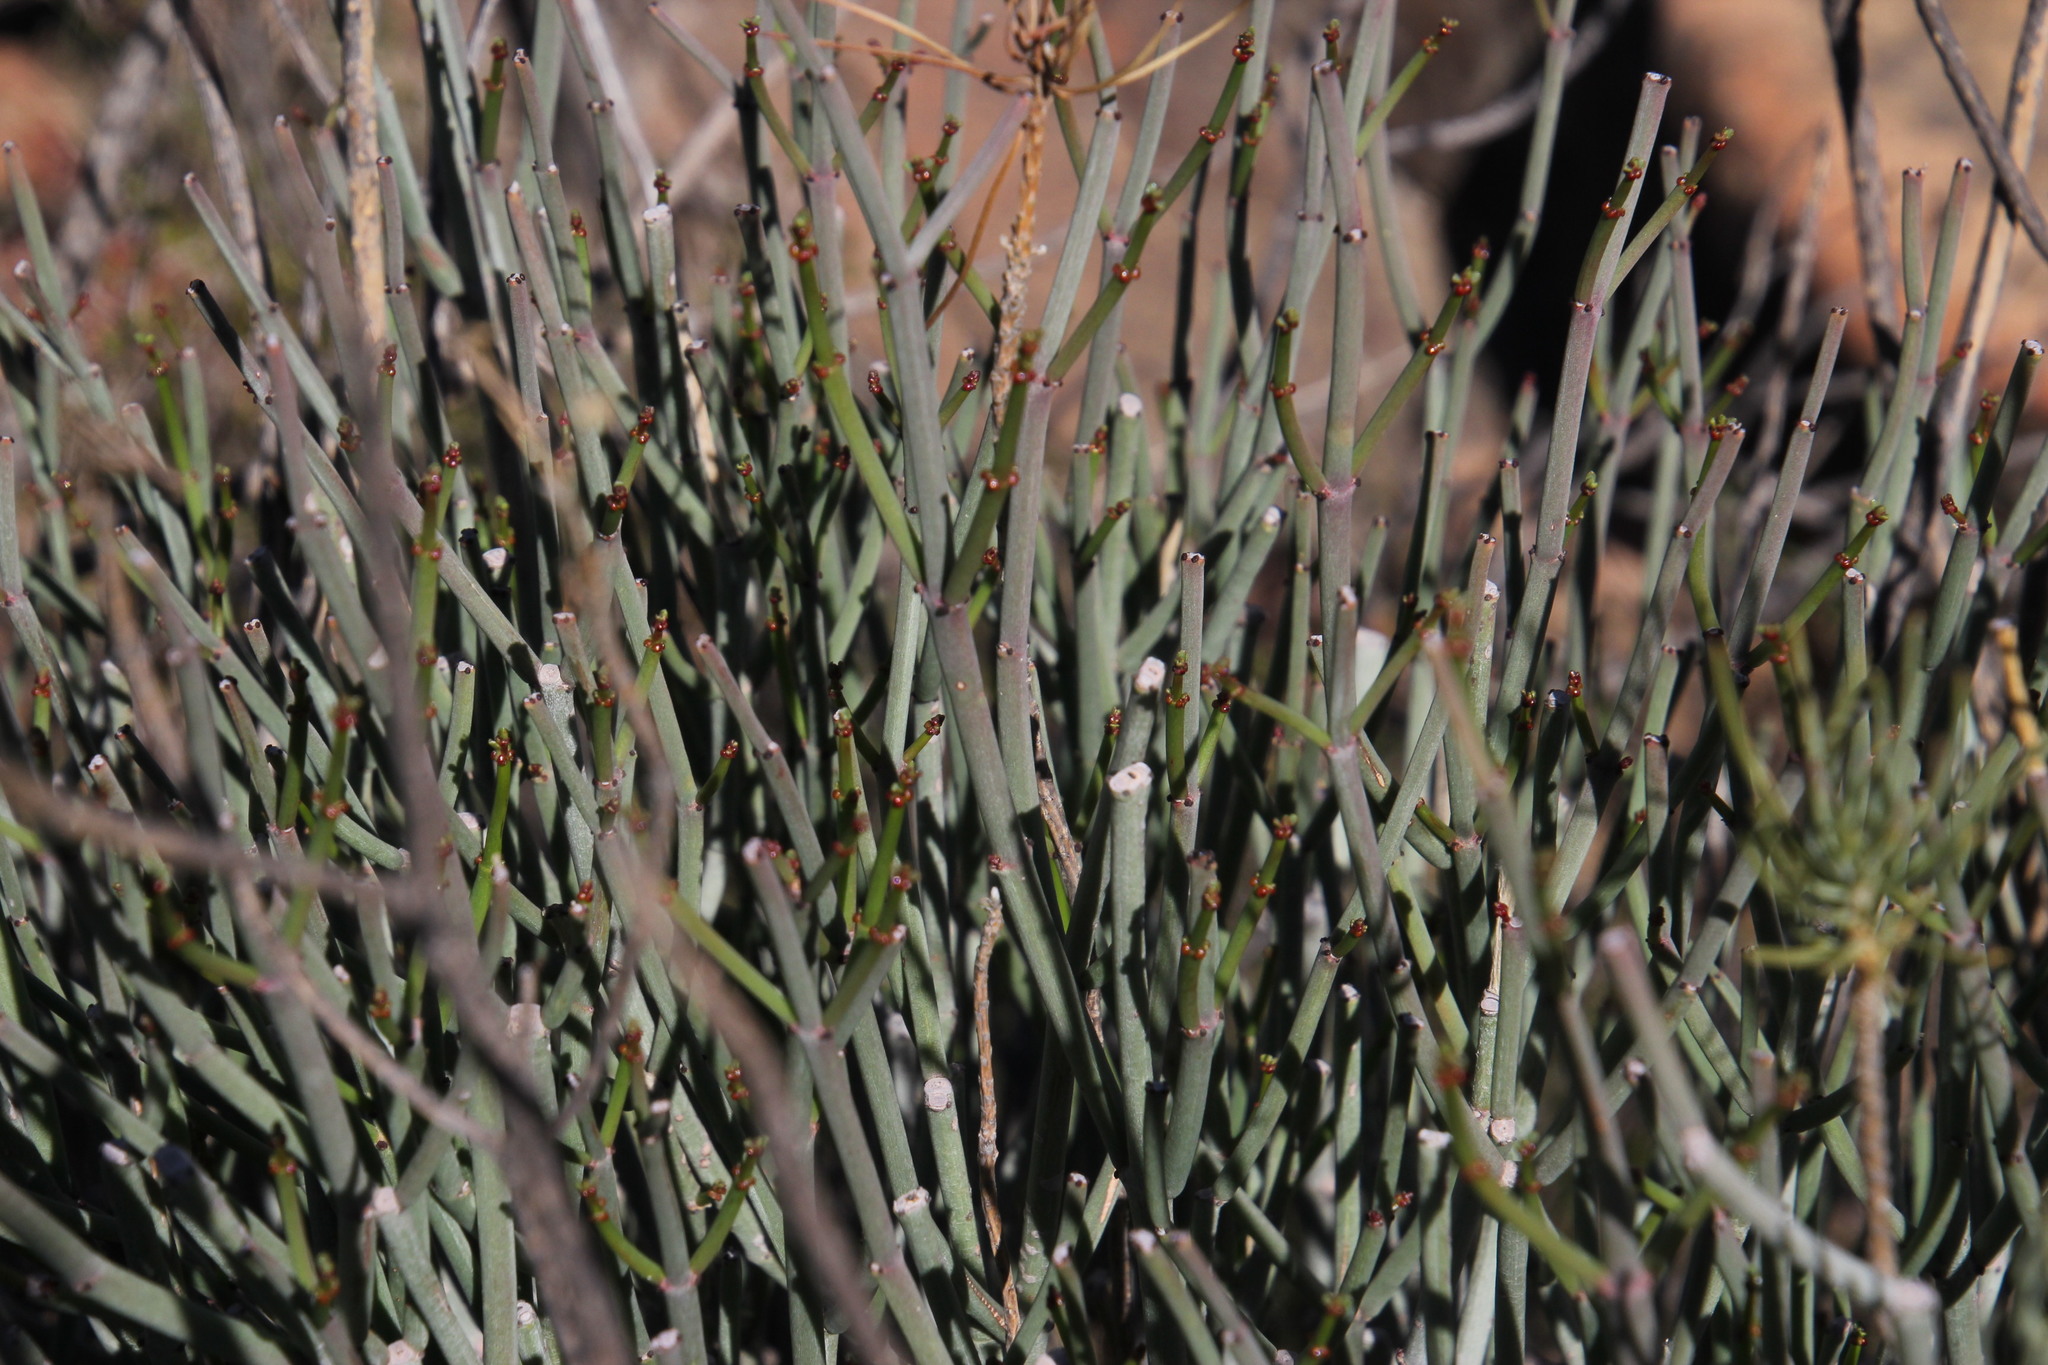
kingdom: Plantae
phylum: Tracheophyta
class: Magnoliopsida
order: Malpighiales
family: Euphorbiaceae
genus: Euphorbia
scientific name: Euphorbia burmanni
